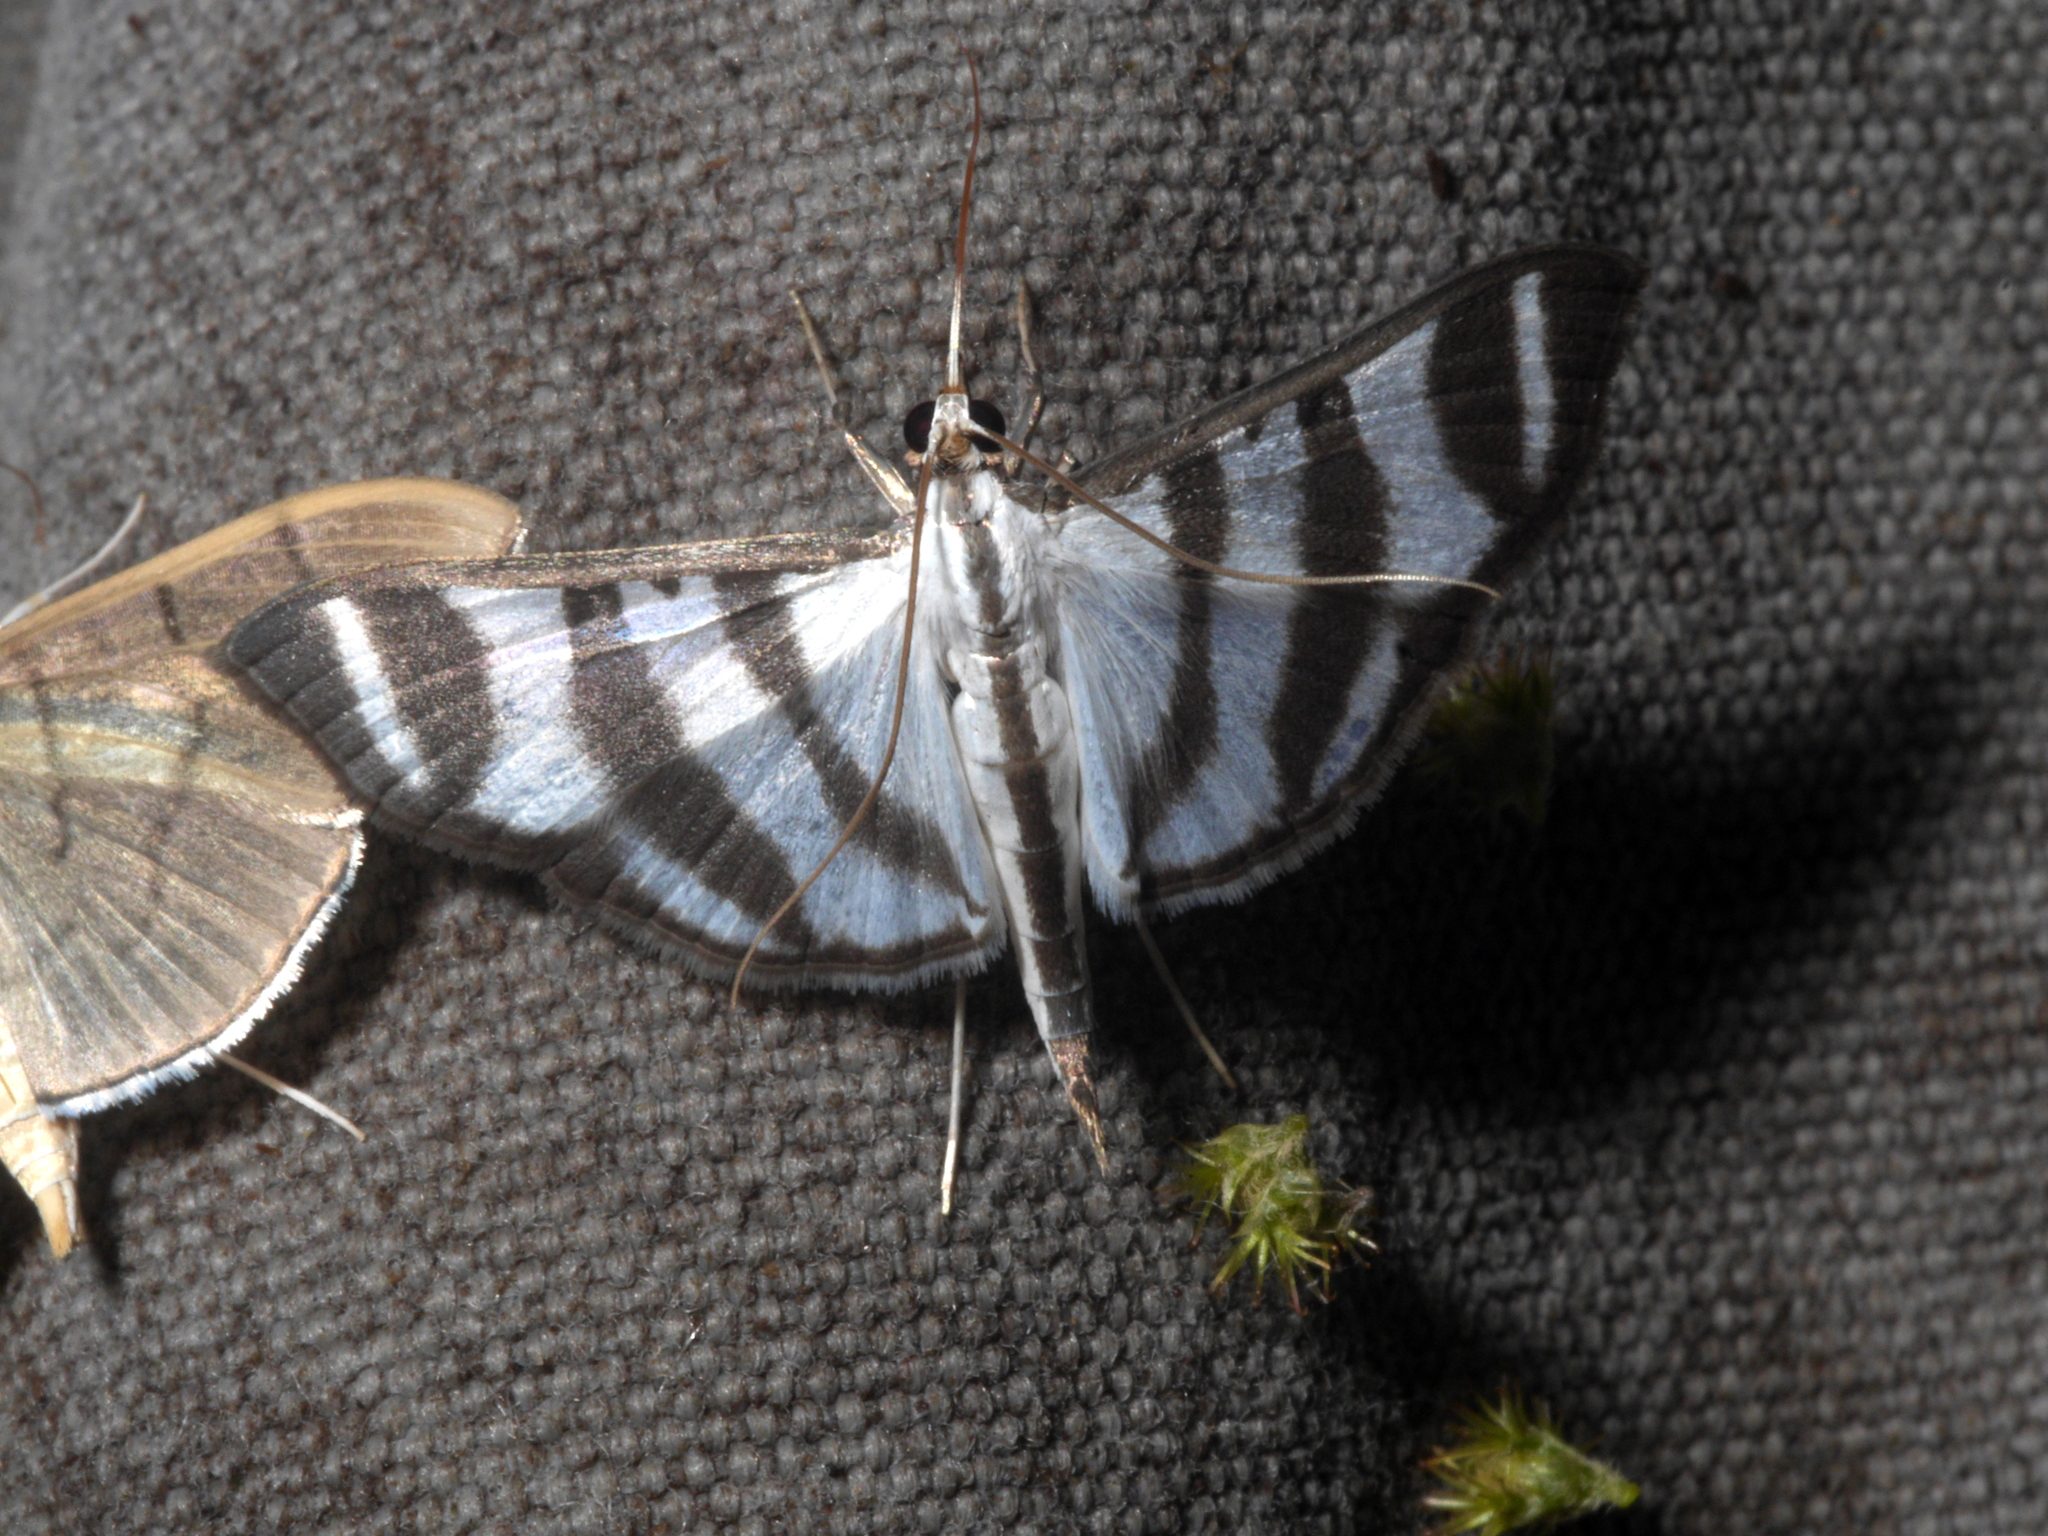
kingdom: Animalia
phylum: Arthropoda
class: Insecta
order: Lepidoptera
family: Crambidae
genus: Zebronia
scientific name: Zebronia phenice
